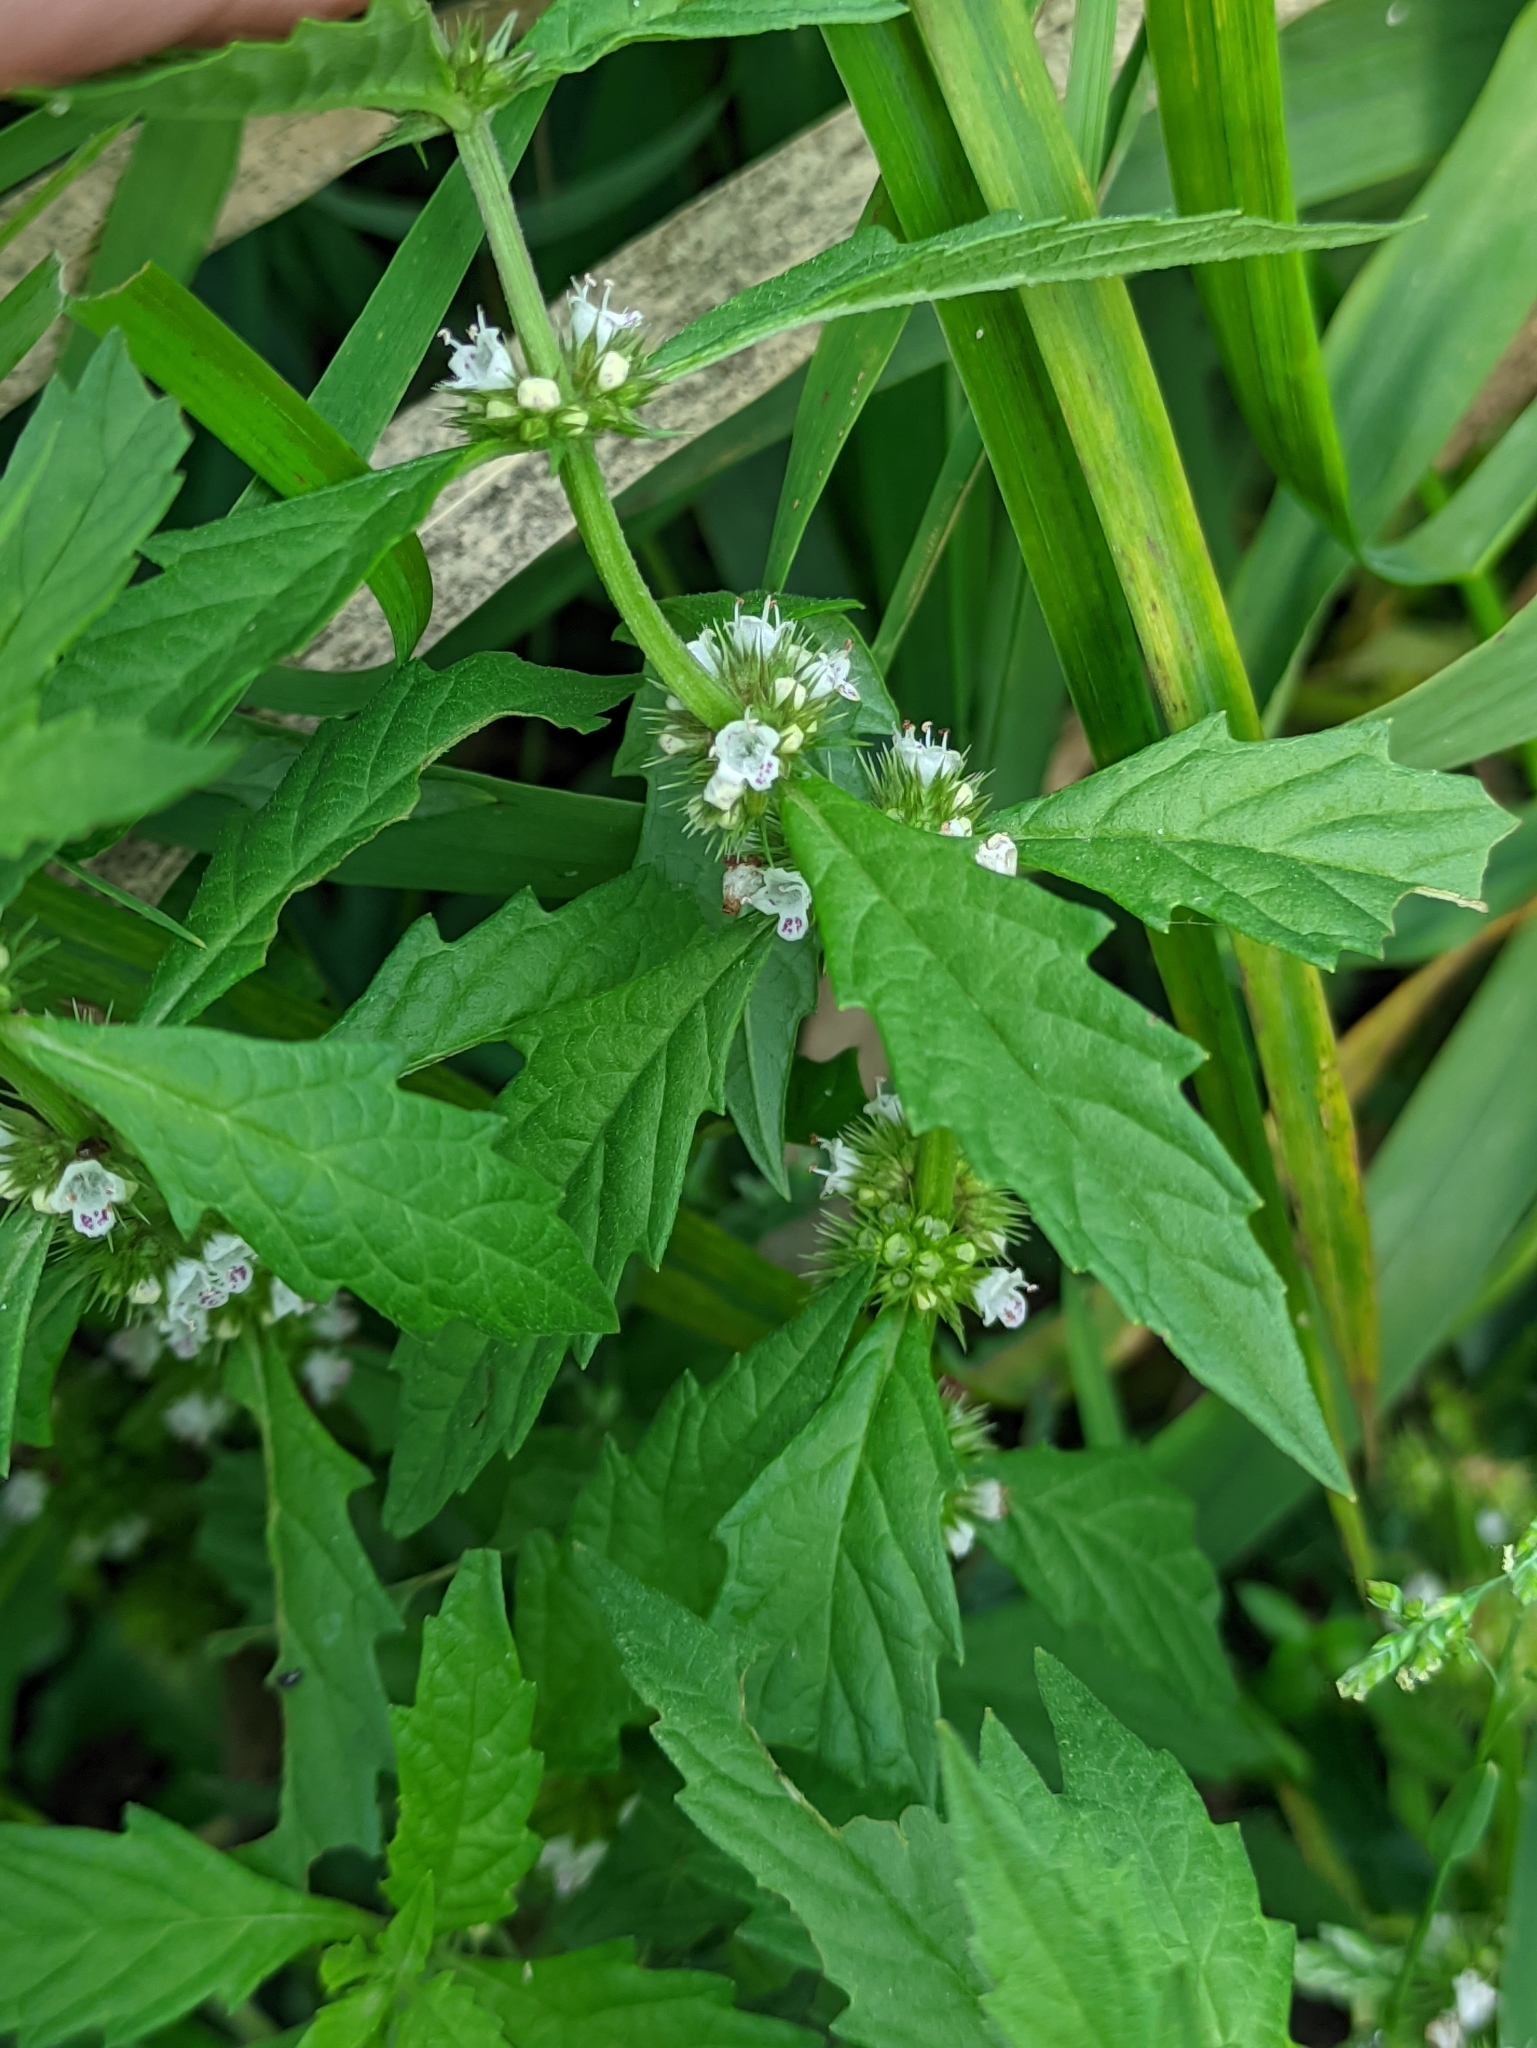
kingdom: Plantae
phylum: Tracheophyta
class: Magnoliopsida
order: Lamiales
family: Lamiaceae
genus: Lycopus
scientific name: Lycopus europaeus
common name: European bugleweed
